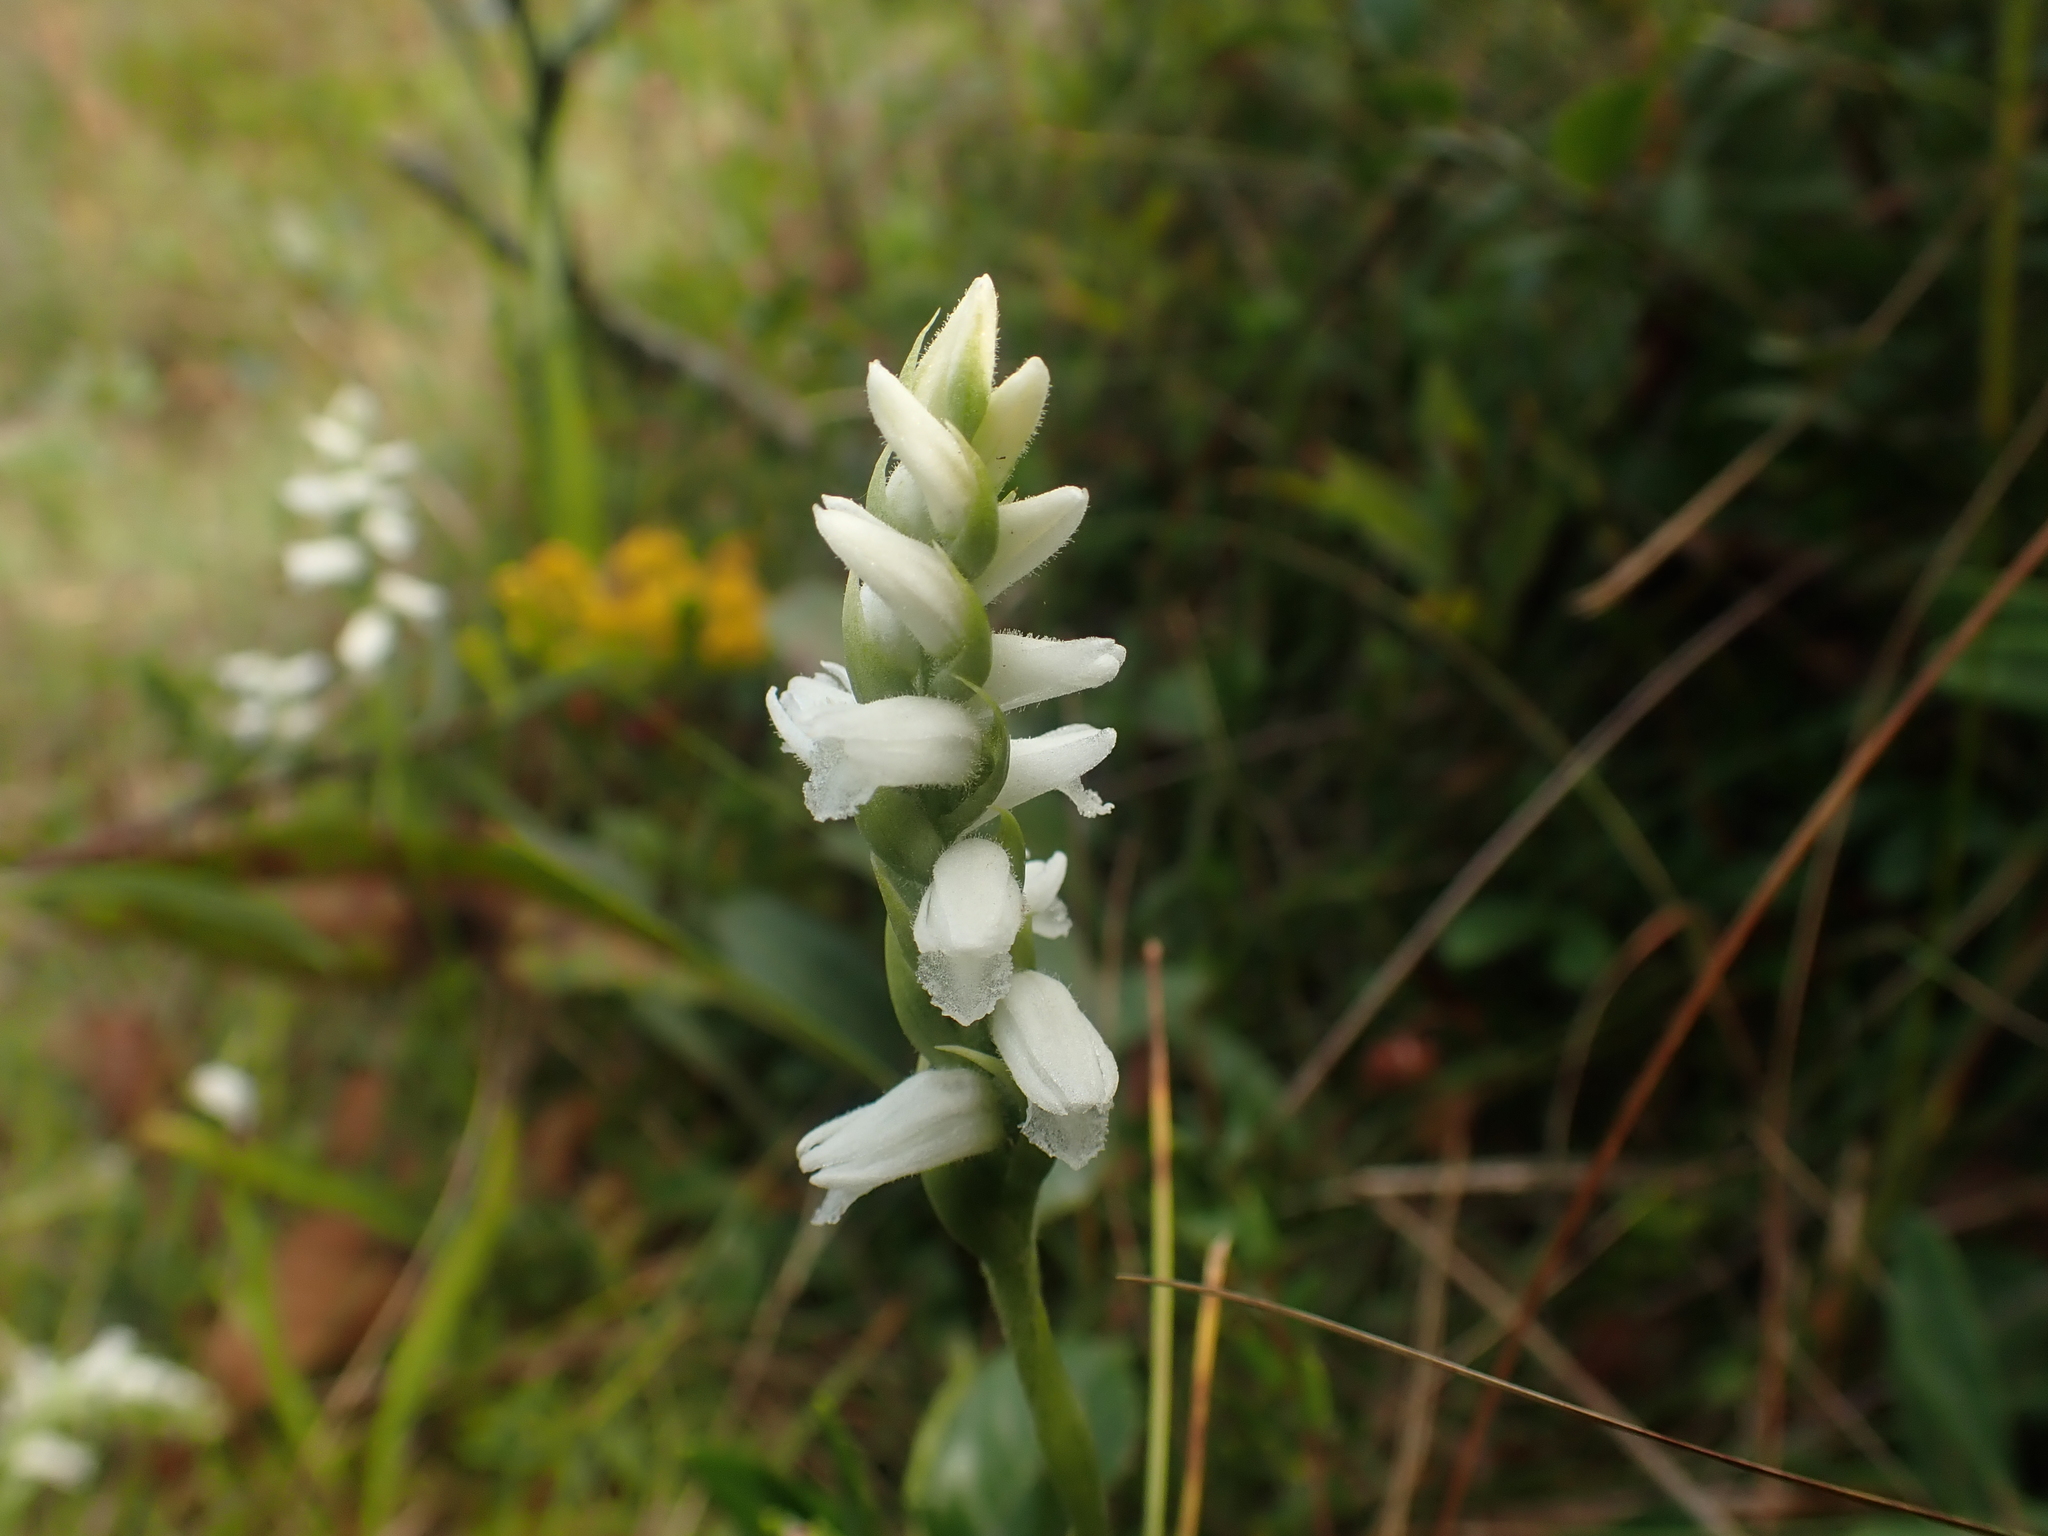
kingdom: Plantae
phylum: Tracheophyta
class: Liliopsida
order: Asparagales
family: Orchidaceae
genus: Spiranthes
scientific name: Spiranthes cernua
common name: Dropping ladies'-tresses
